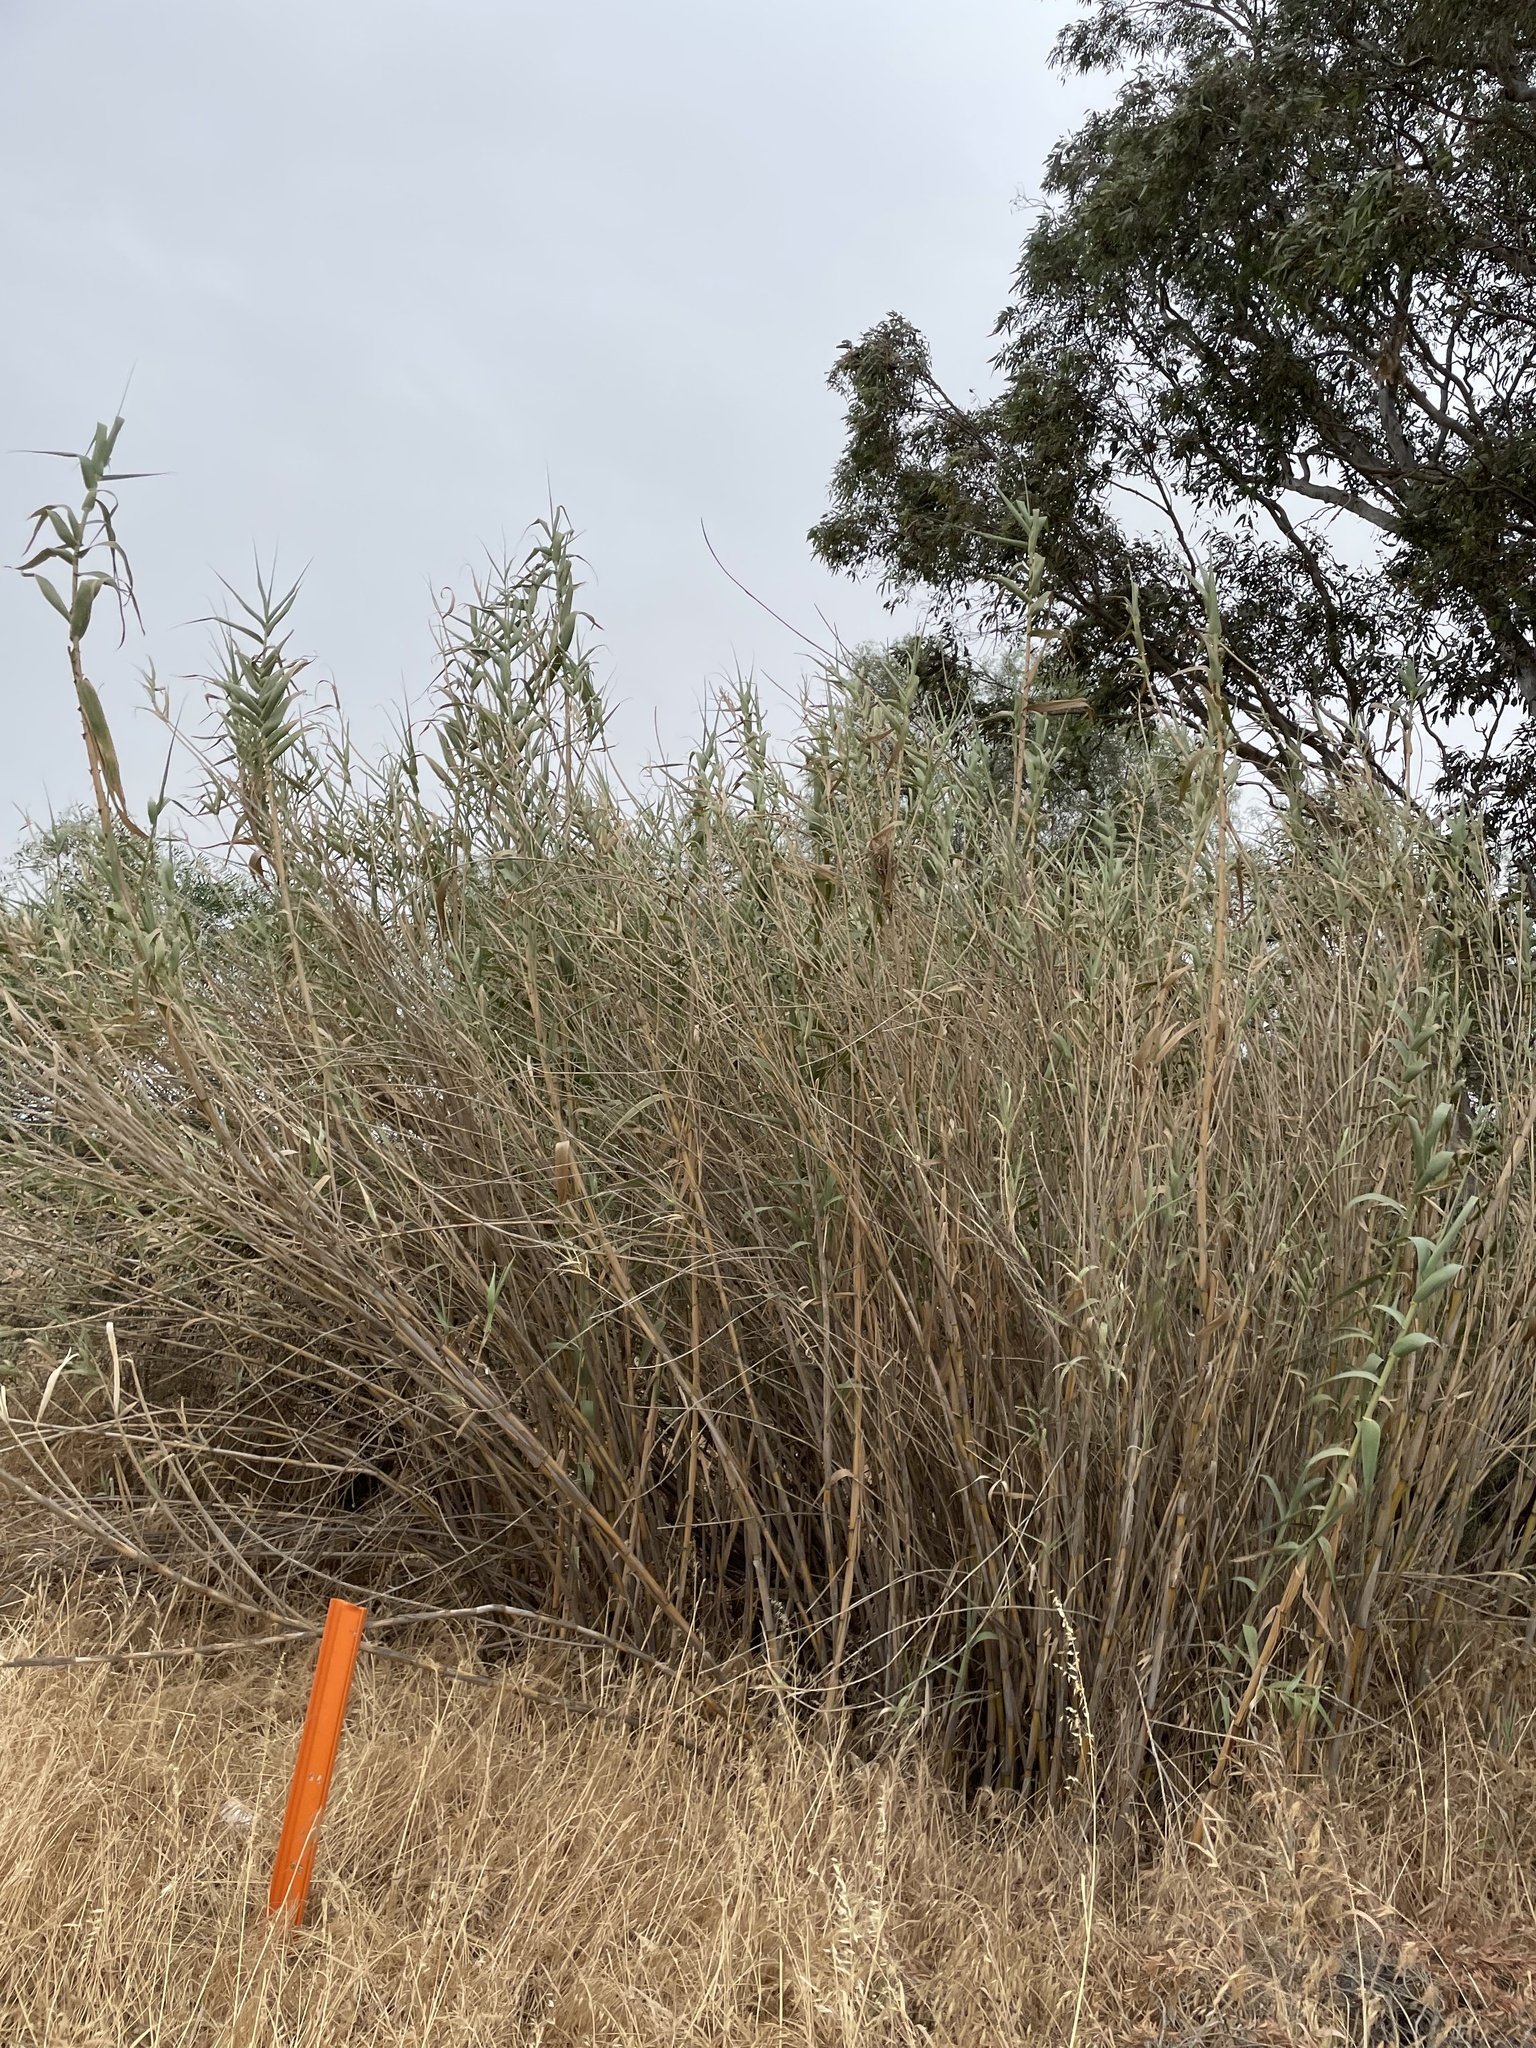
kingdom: Plantae
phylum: Tracheophyta
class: Liliopsida
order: Poales
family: Poaceae
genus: Arundo
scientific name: Arundo donax
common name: Giant reed
